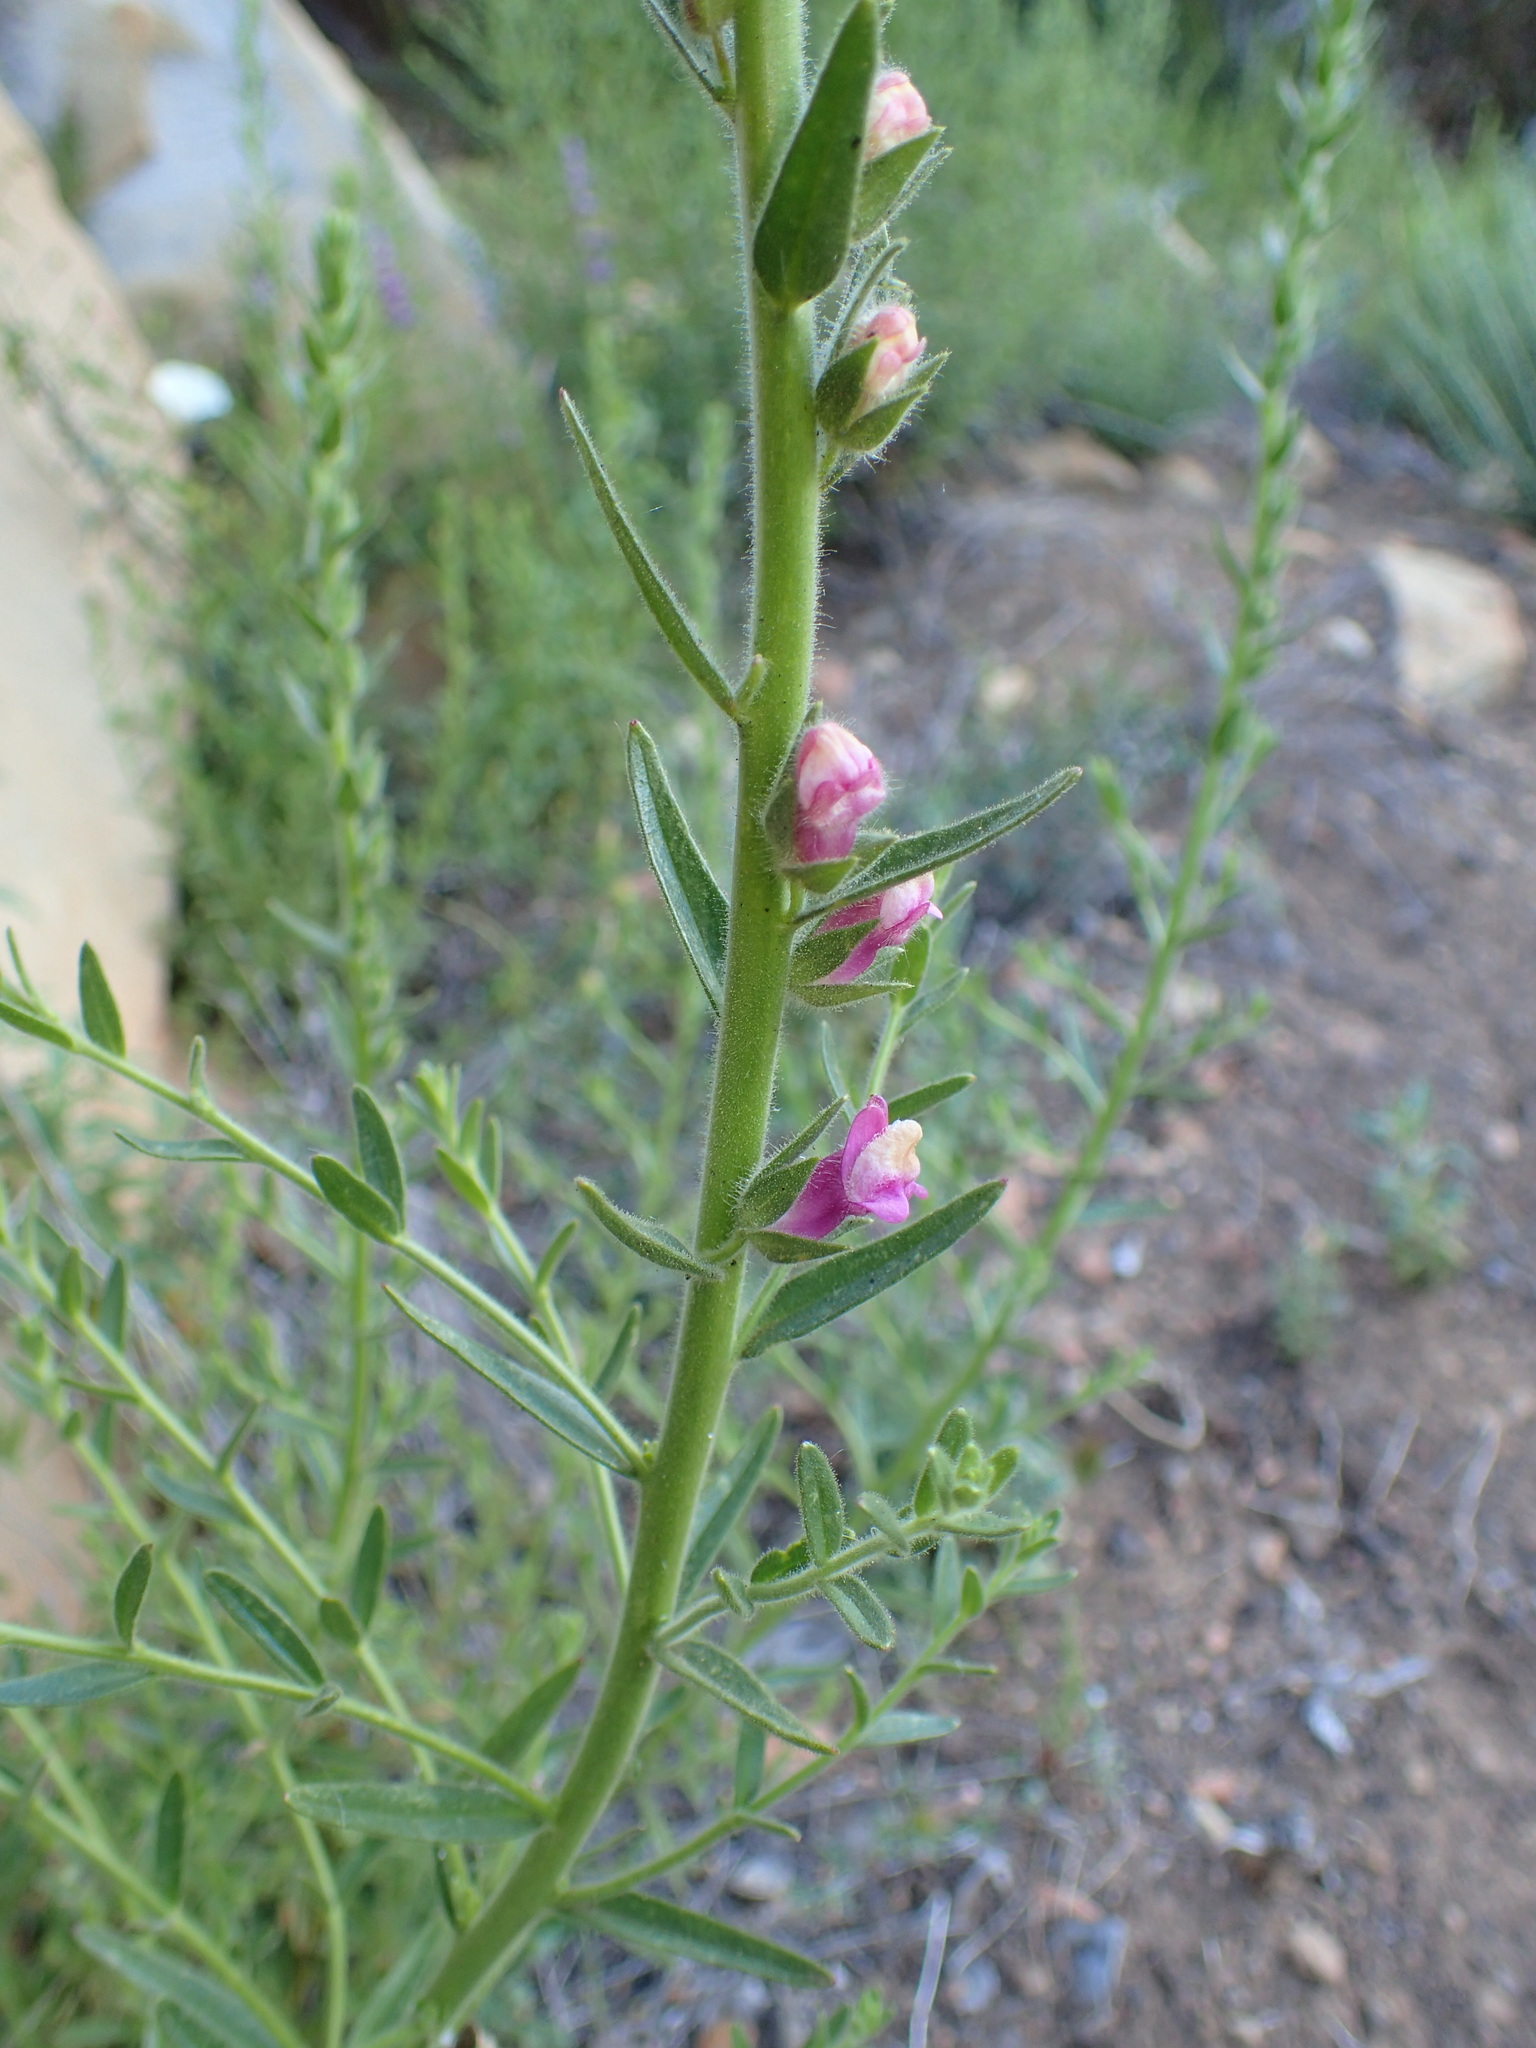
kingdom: Plantae
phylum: Tracheophyta
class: Magnoliopsida
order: Lamiales
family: Plantaginaceae
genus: Sairocarpus
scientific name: Sairocarpus multiflorus
